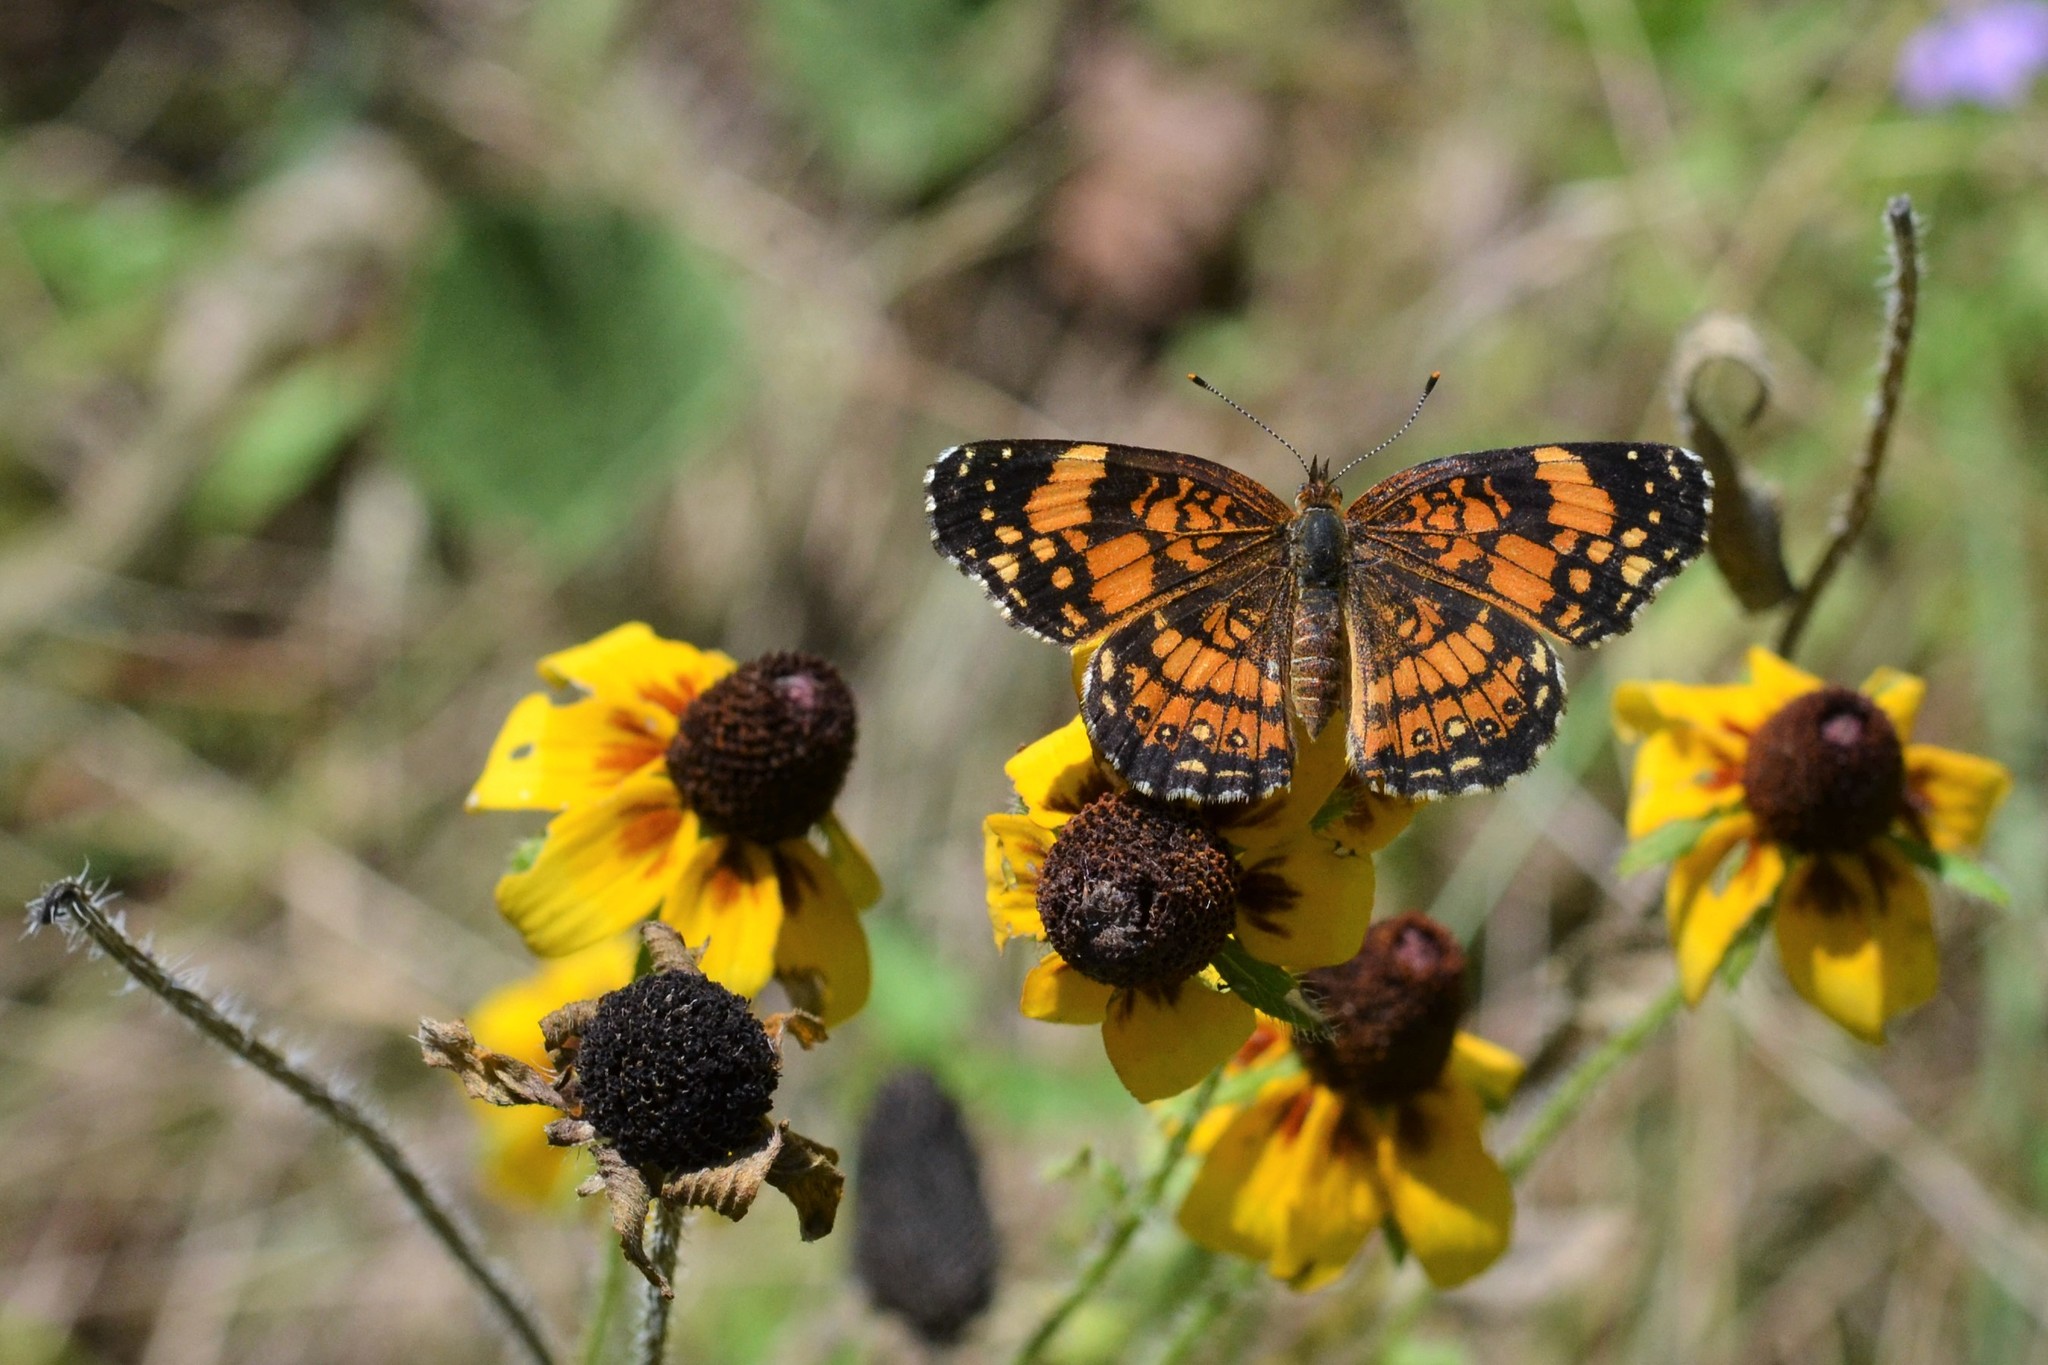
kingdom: Animalia
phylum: Arthropoda
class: Insecta
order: Lepidoptera
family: Nymphalidae
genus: Chlosyne
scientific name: Chlosyne nycteis
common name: Silvery checkerspot
